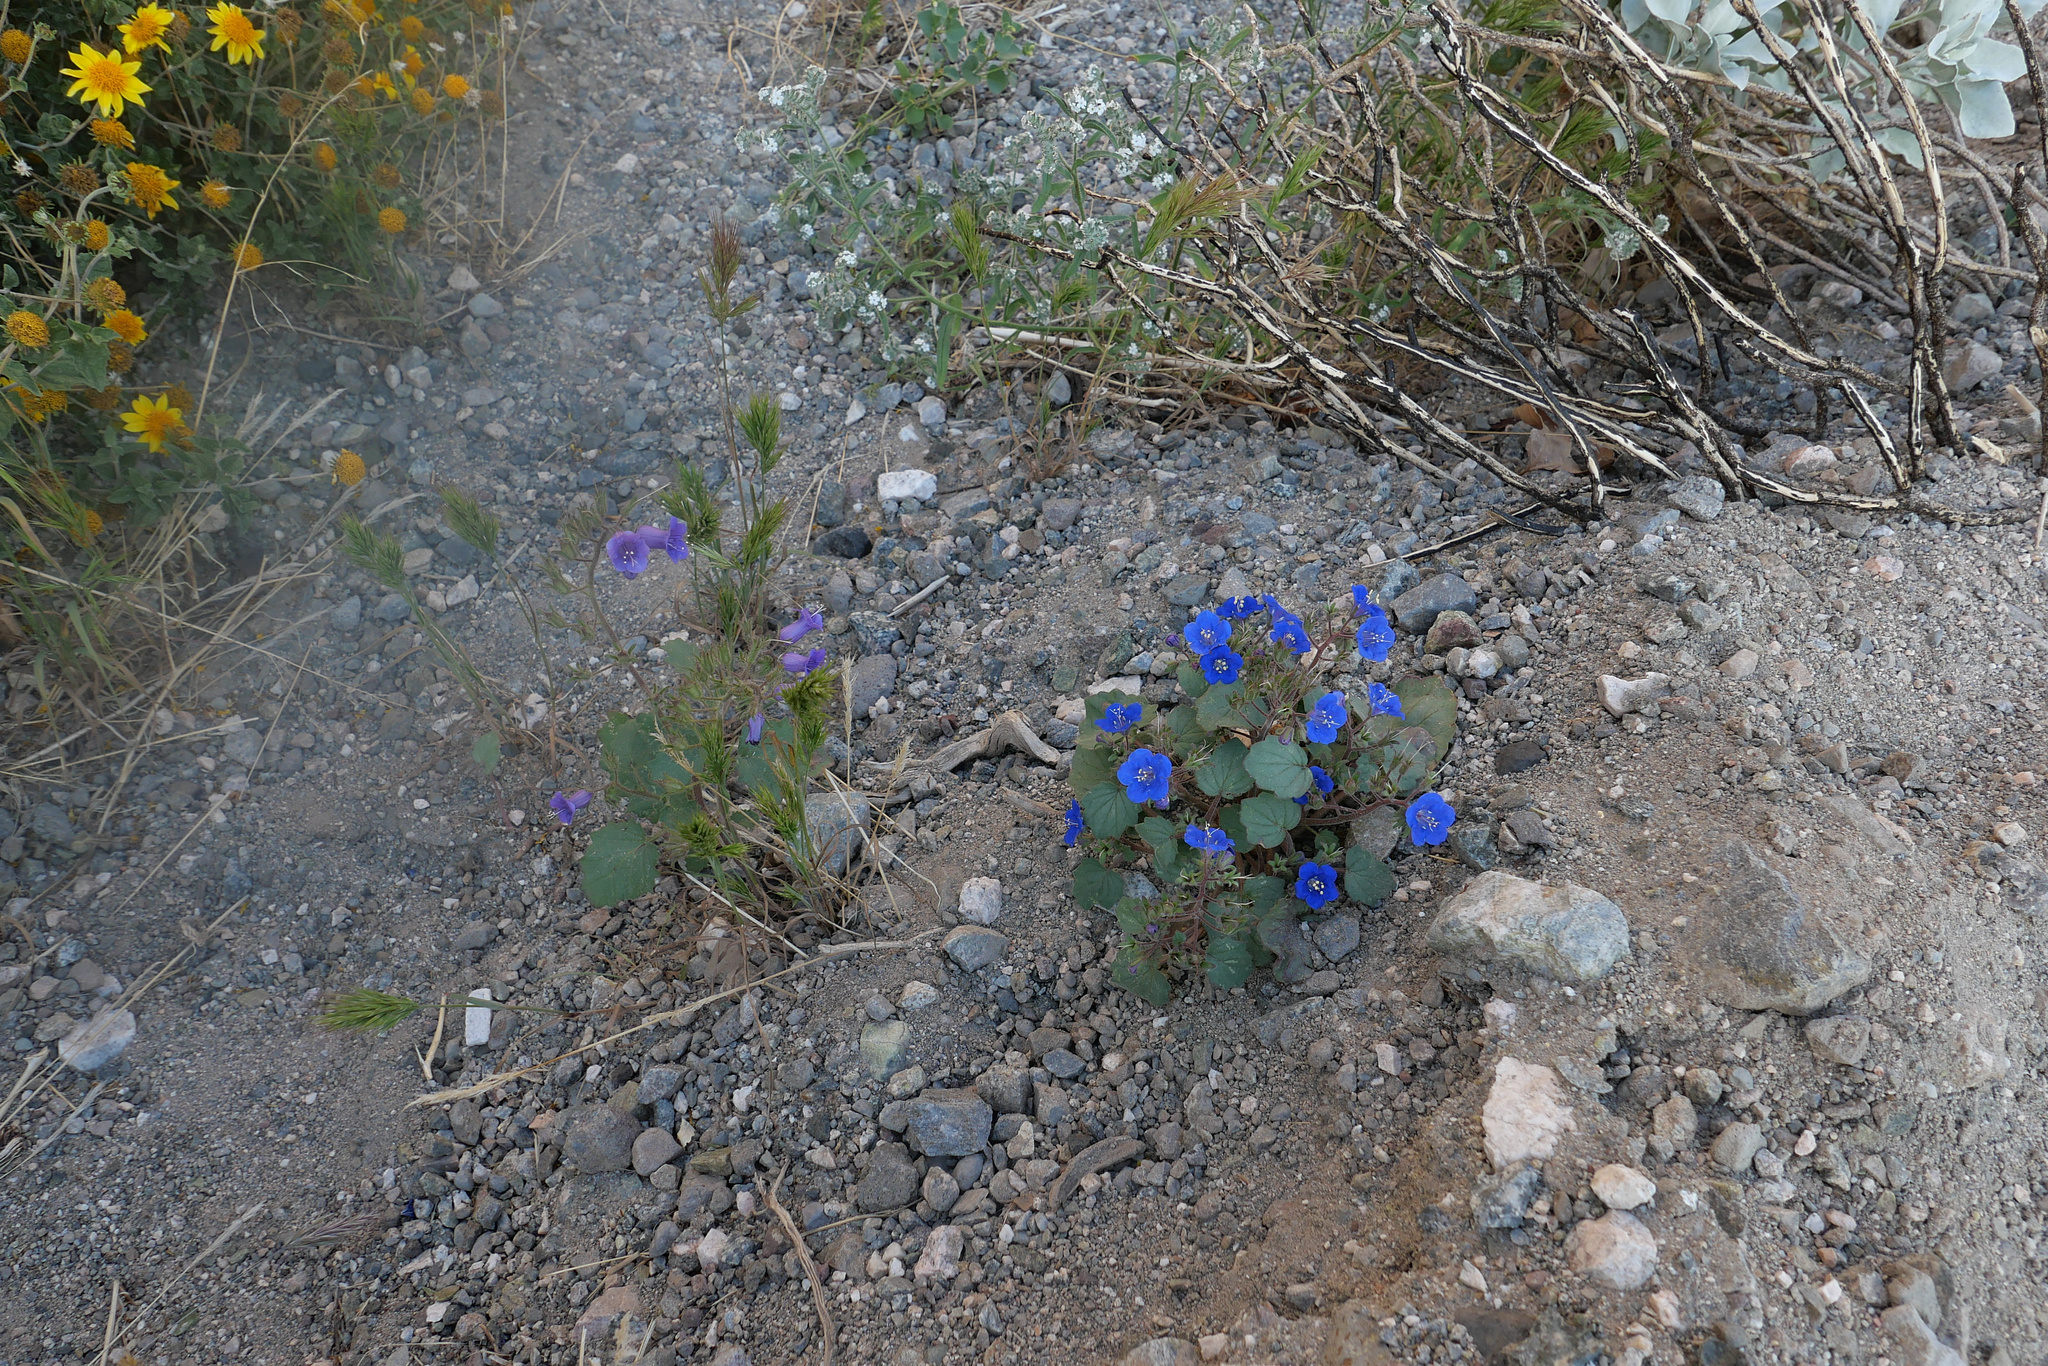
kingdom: Plantae
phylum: Tracheophyta
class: Magnoliopsida
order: Boraginales
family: Hydrophyllaceae
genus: Phacelia
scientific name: Phacelia minor
